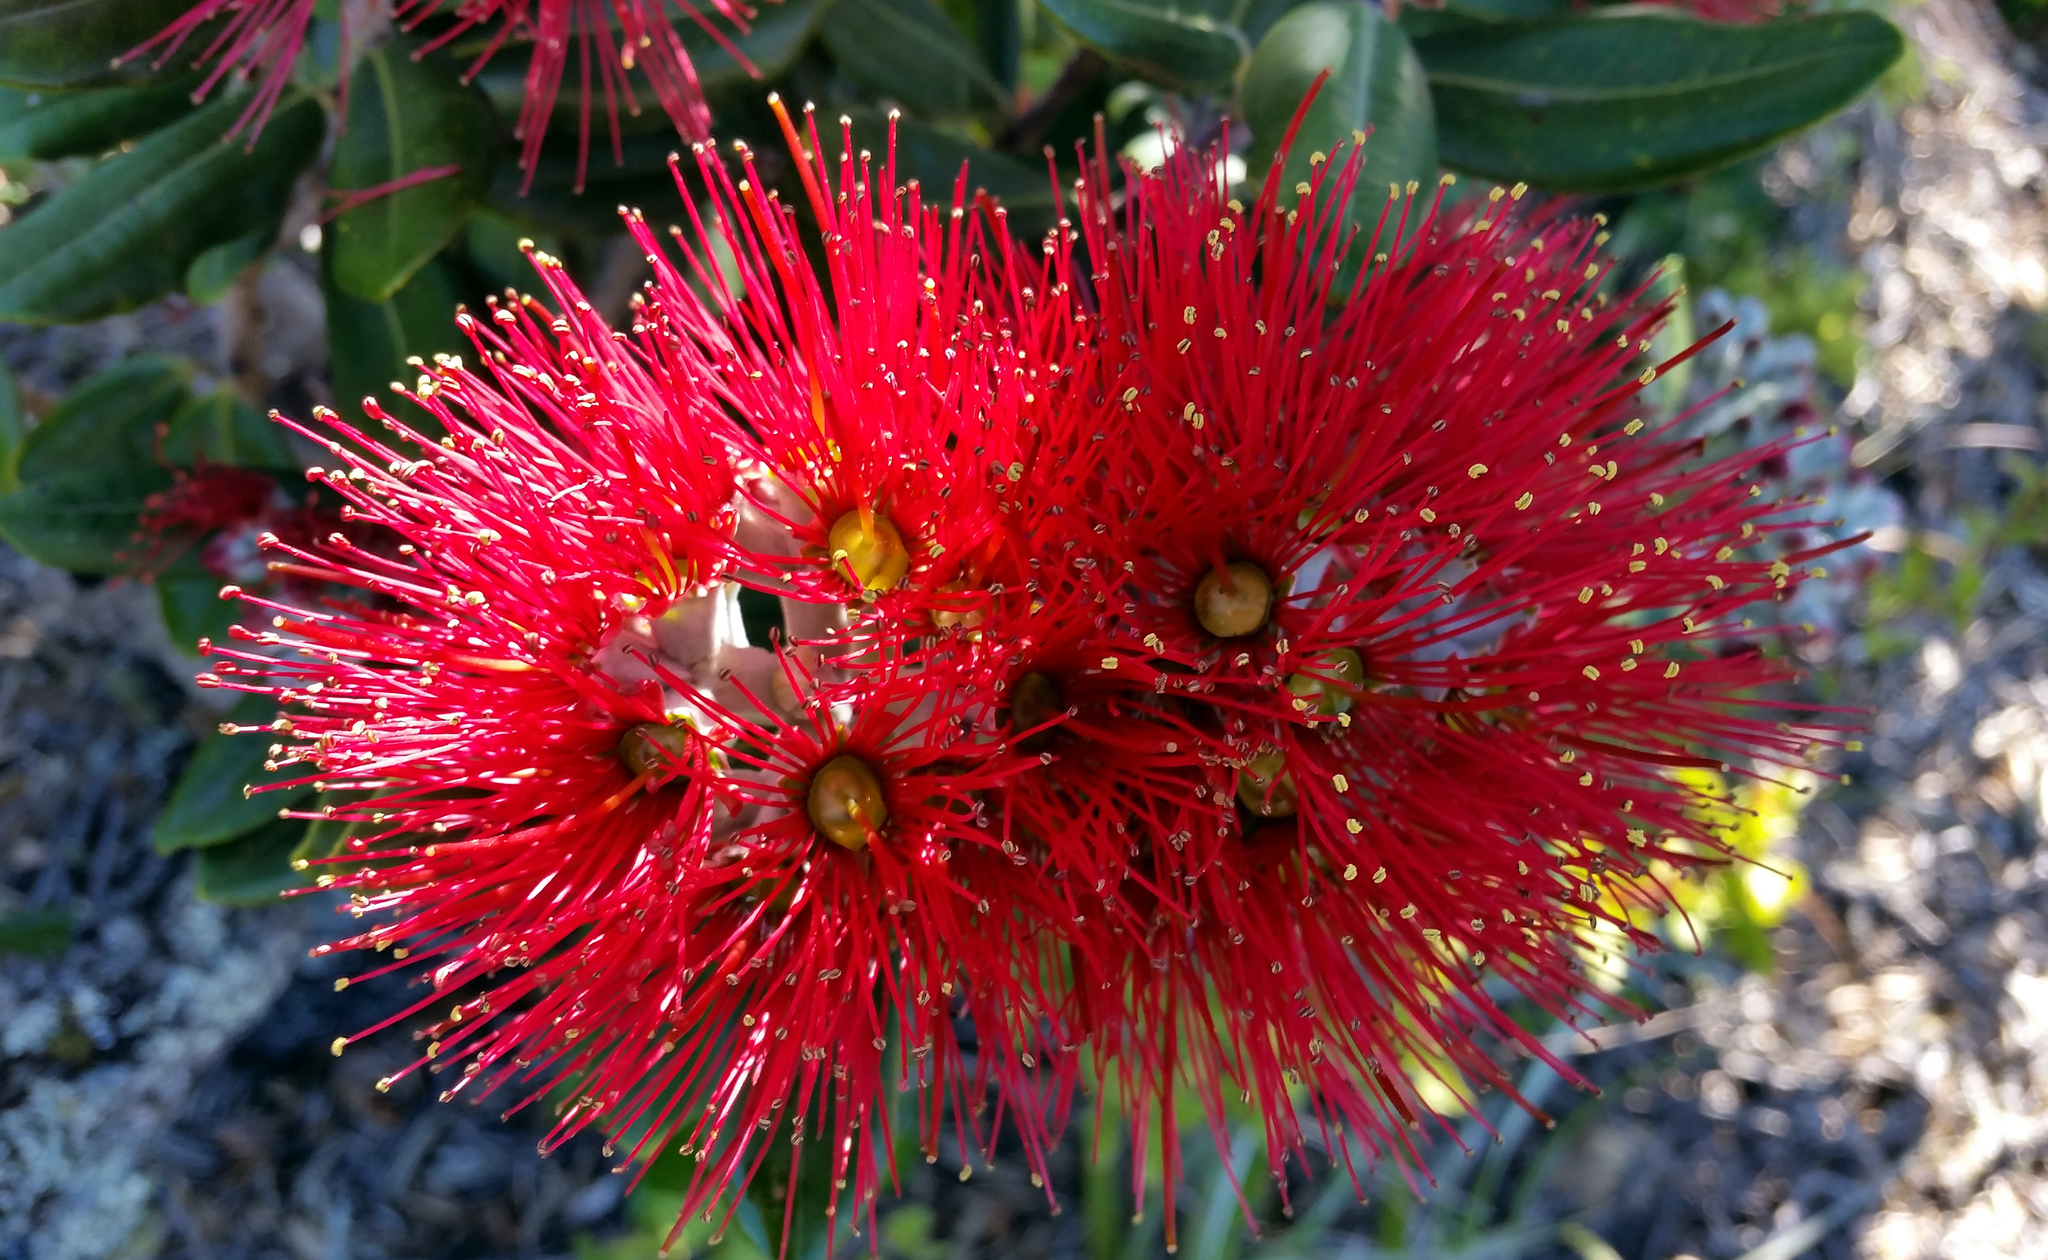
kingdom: Plantae
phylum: Tracheophyta
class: Magnoliopsida
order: Myrtales
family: Myrtaceae
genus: Metrosideros
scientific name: Metrosideros excelsa
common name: New zealand christmastree
